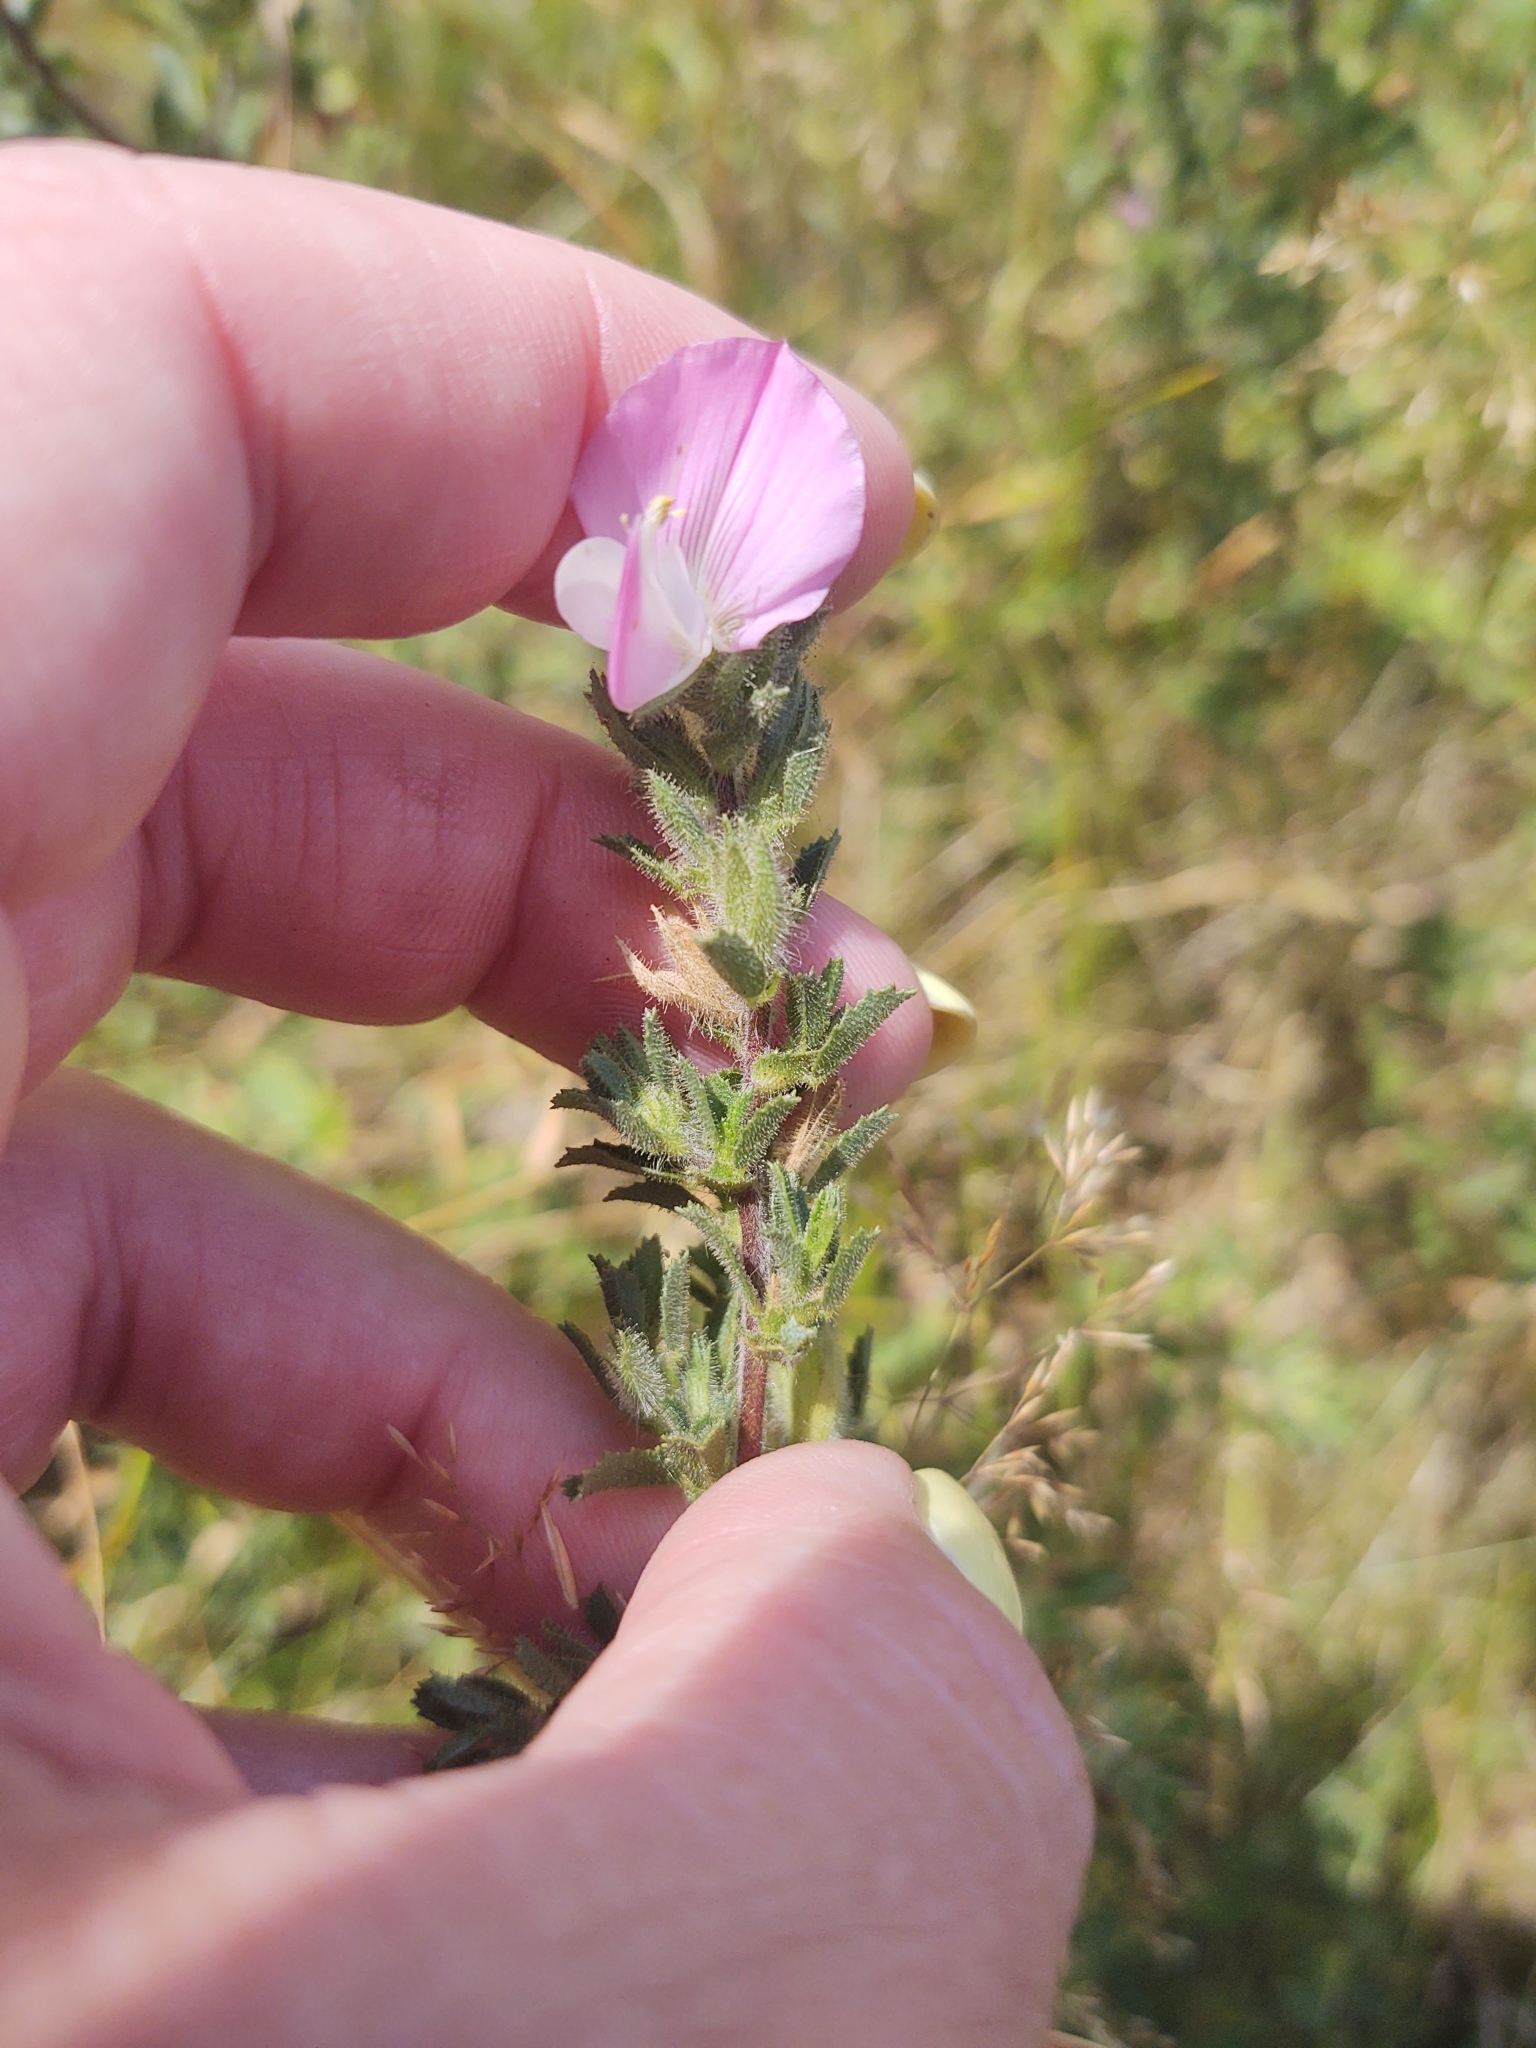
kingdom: Plantae
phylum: Tracheophyta
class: Magnoliopsida
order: Fabales
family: Fabaceae
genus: Ononis
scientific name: Ononis spinosa
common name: Spiny restharrow
